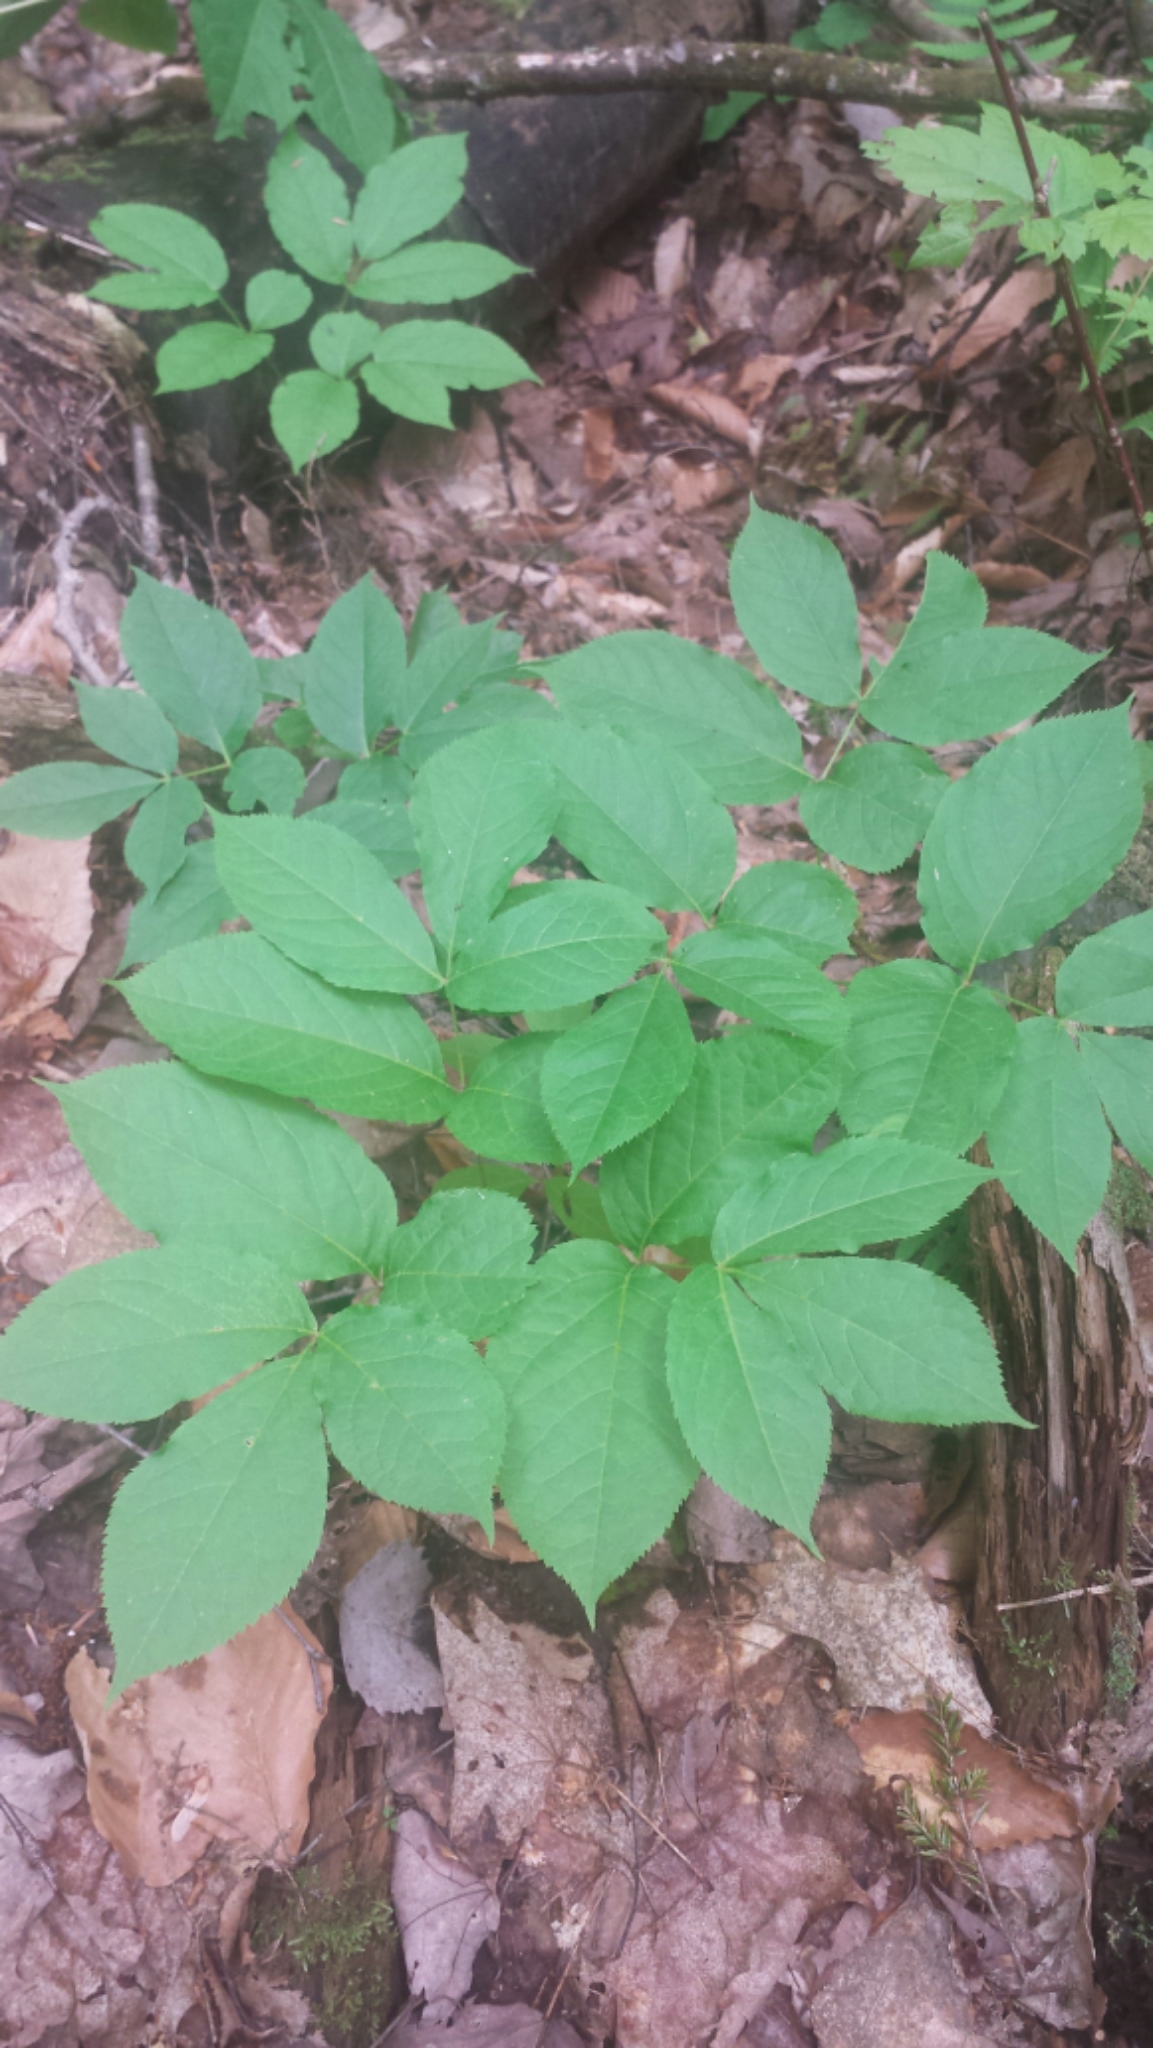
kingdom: Plantae
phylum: Tracheophyta
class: Magnoliopsida
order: Apiales
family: Araliaceae
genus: Aralia
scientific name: Aralia nudicaulis
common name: Wild sarsaparilla
